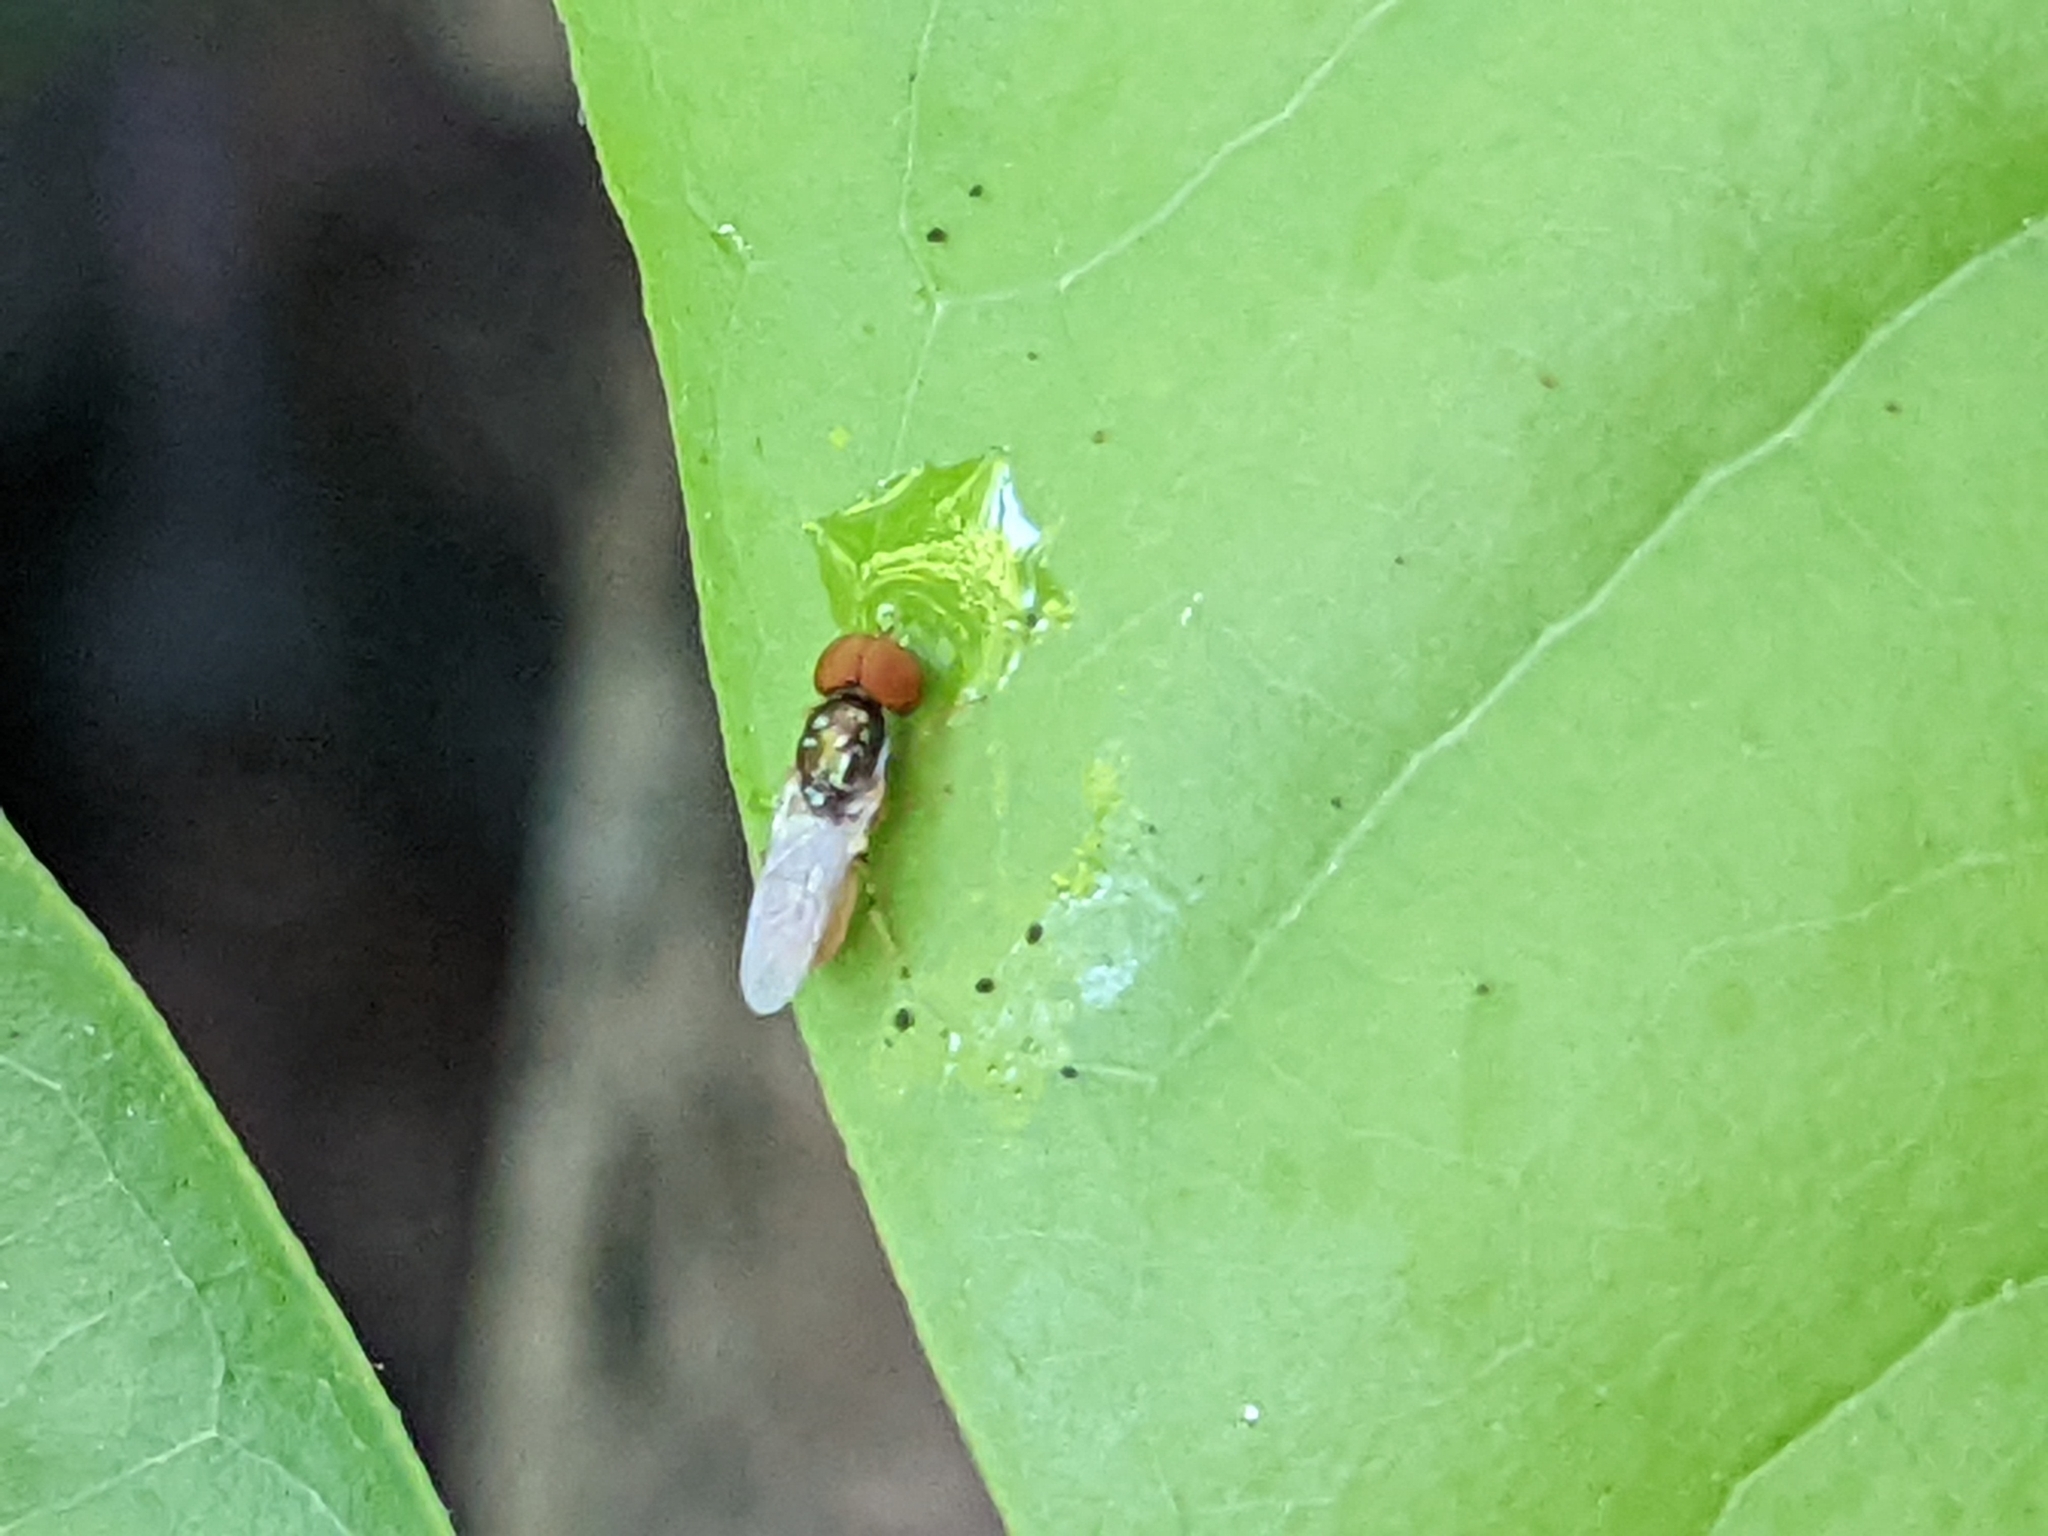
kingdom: Animalia
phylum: Arthropoda
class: Insecta
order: Diptera
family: Stratiomyidae
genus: Microchrysa
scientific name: Microchrysa flaviventris
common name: Soldier fly
